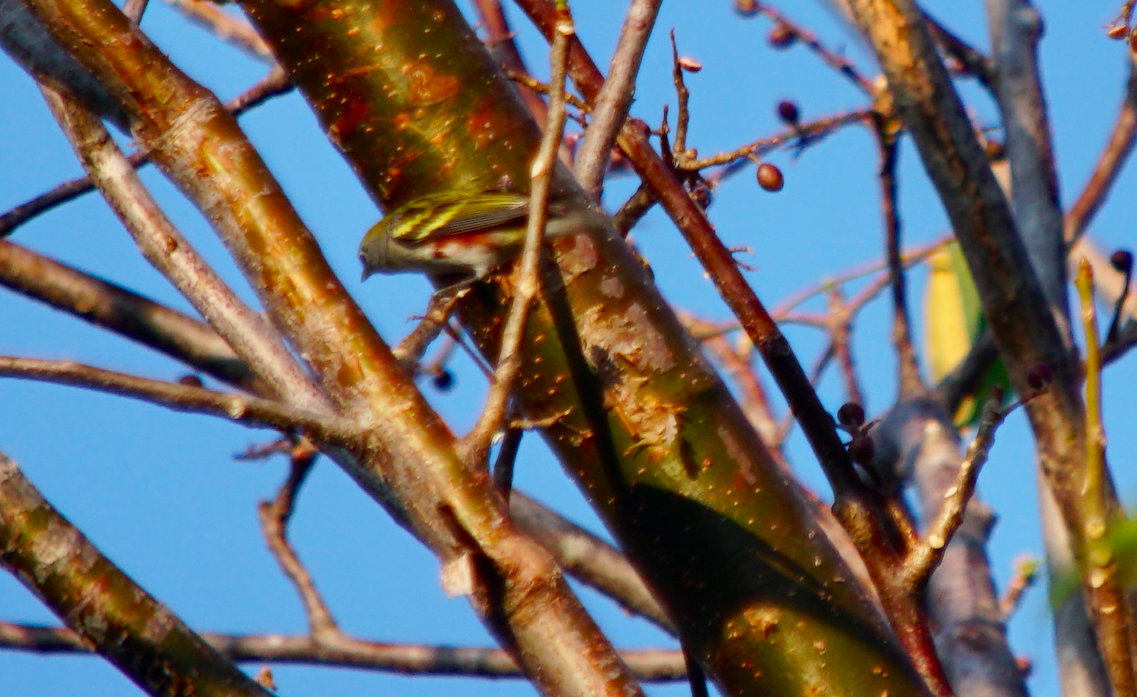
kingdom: Animalia
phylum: Chordata
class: Aves
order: Passeriformes
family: Parulidae
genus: Setophaga
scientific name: Setophaga pensylvanica
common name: Chestnut-sided warbler
